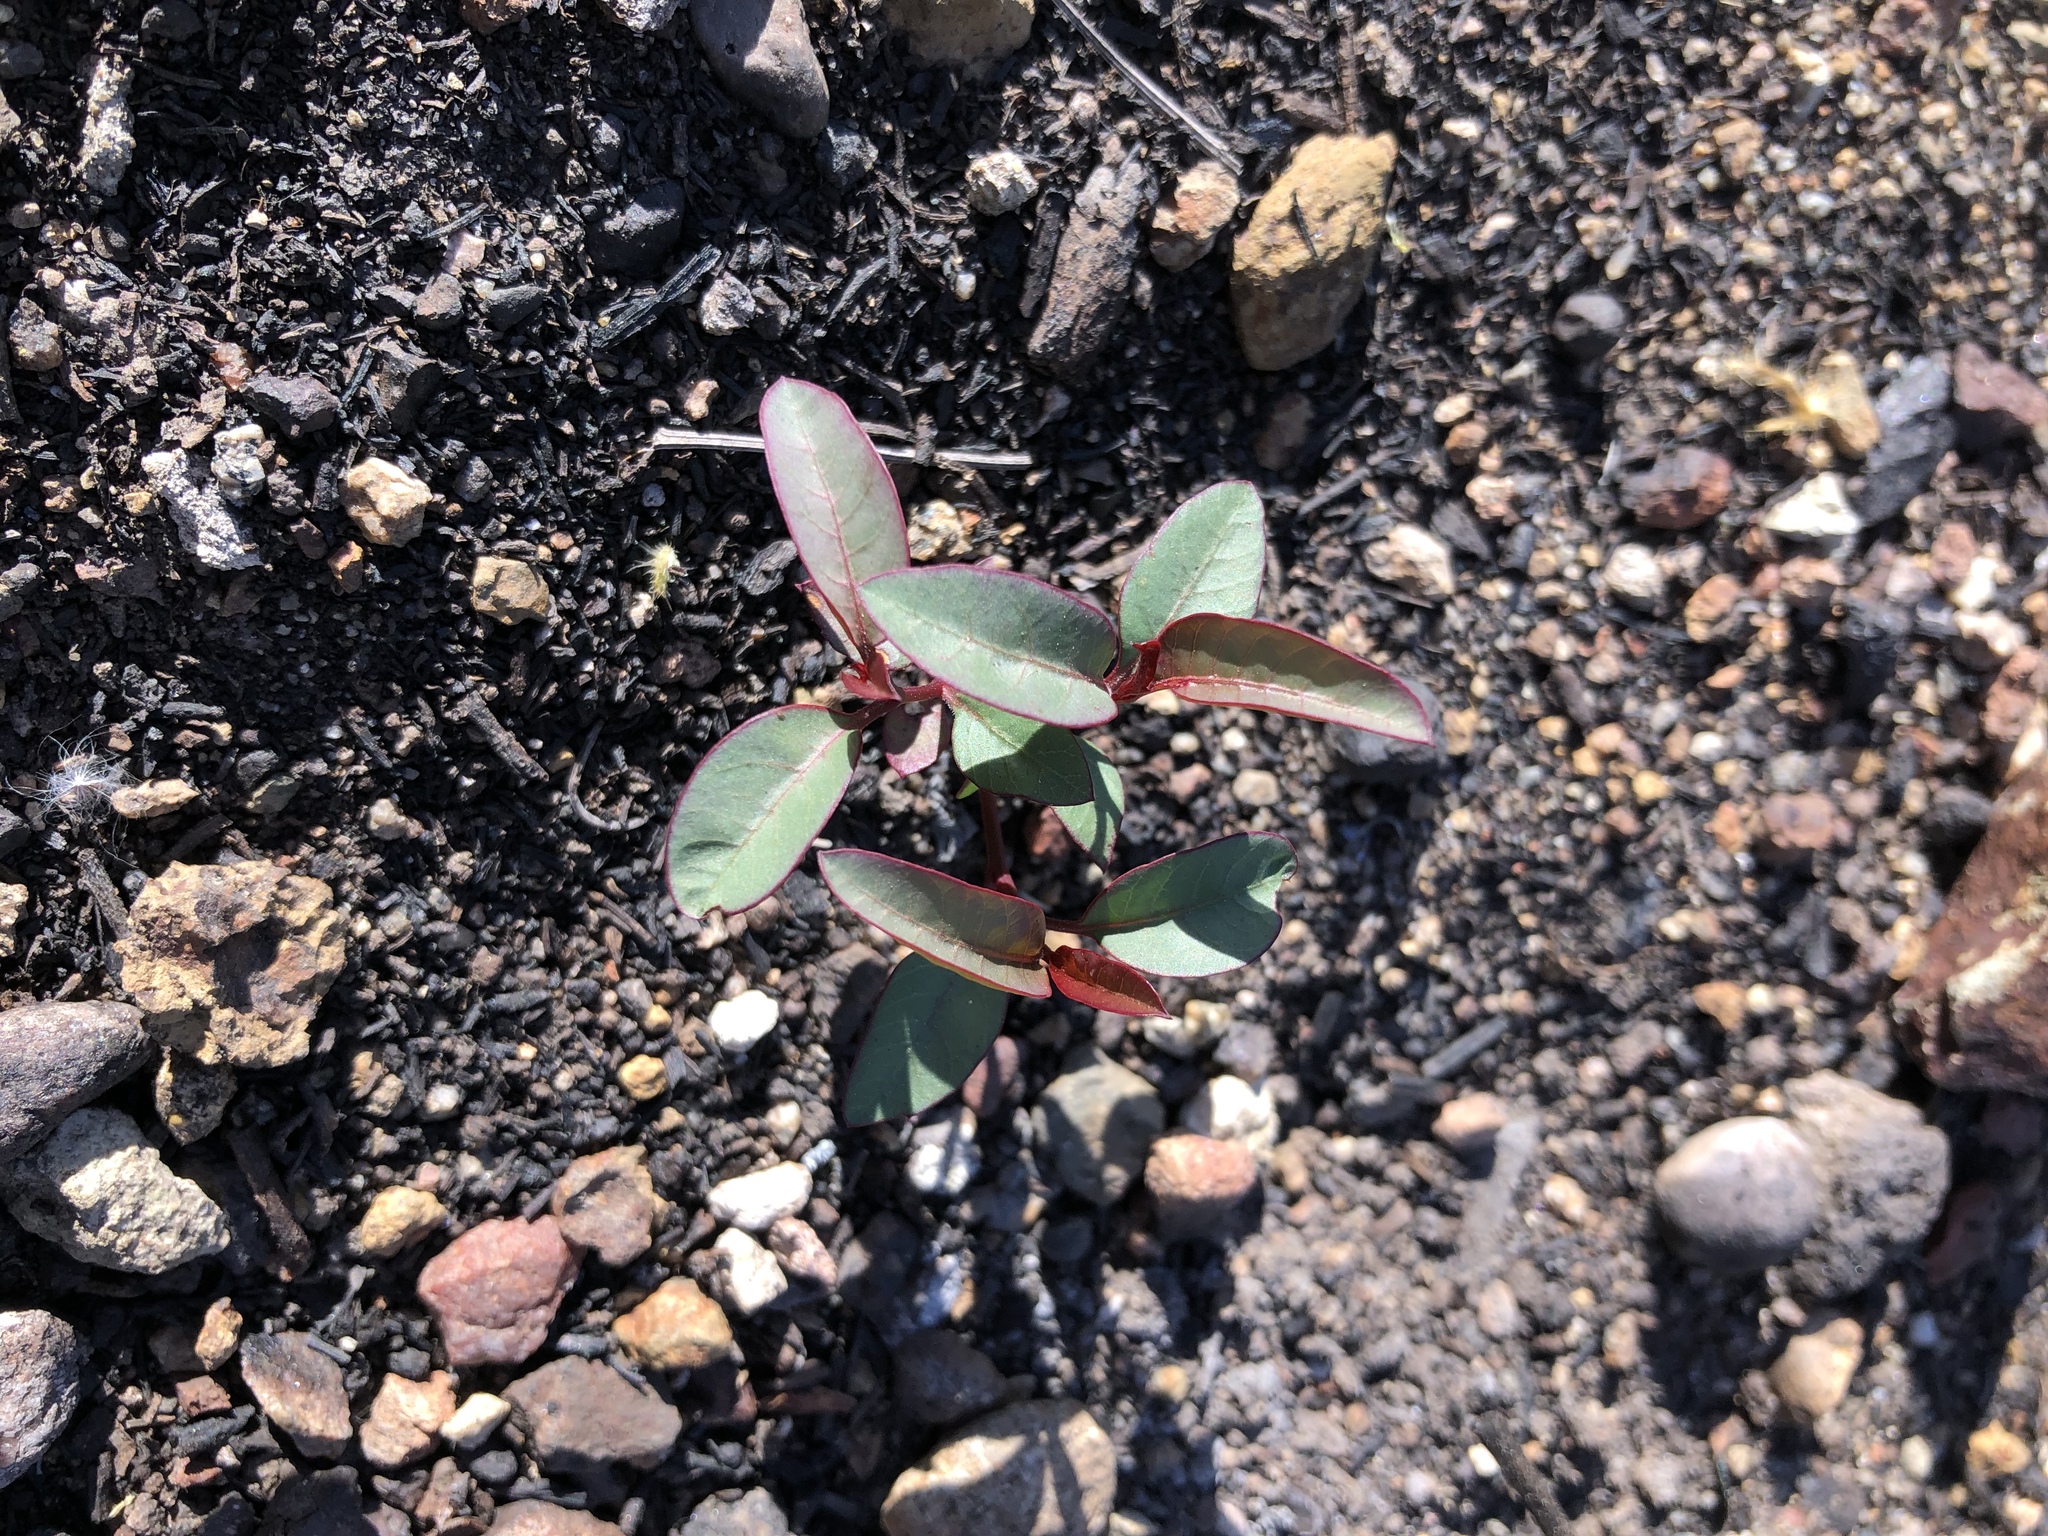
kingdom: Plantae
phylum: Tracheophyta
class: Magnoliopsida
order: Sapindales
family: Anacardiaceae
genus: Malosma
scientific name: Malosma laurina
